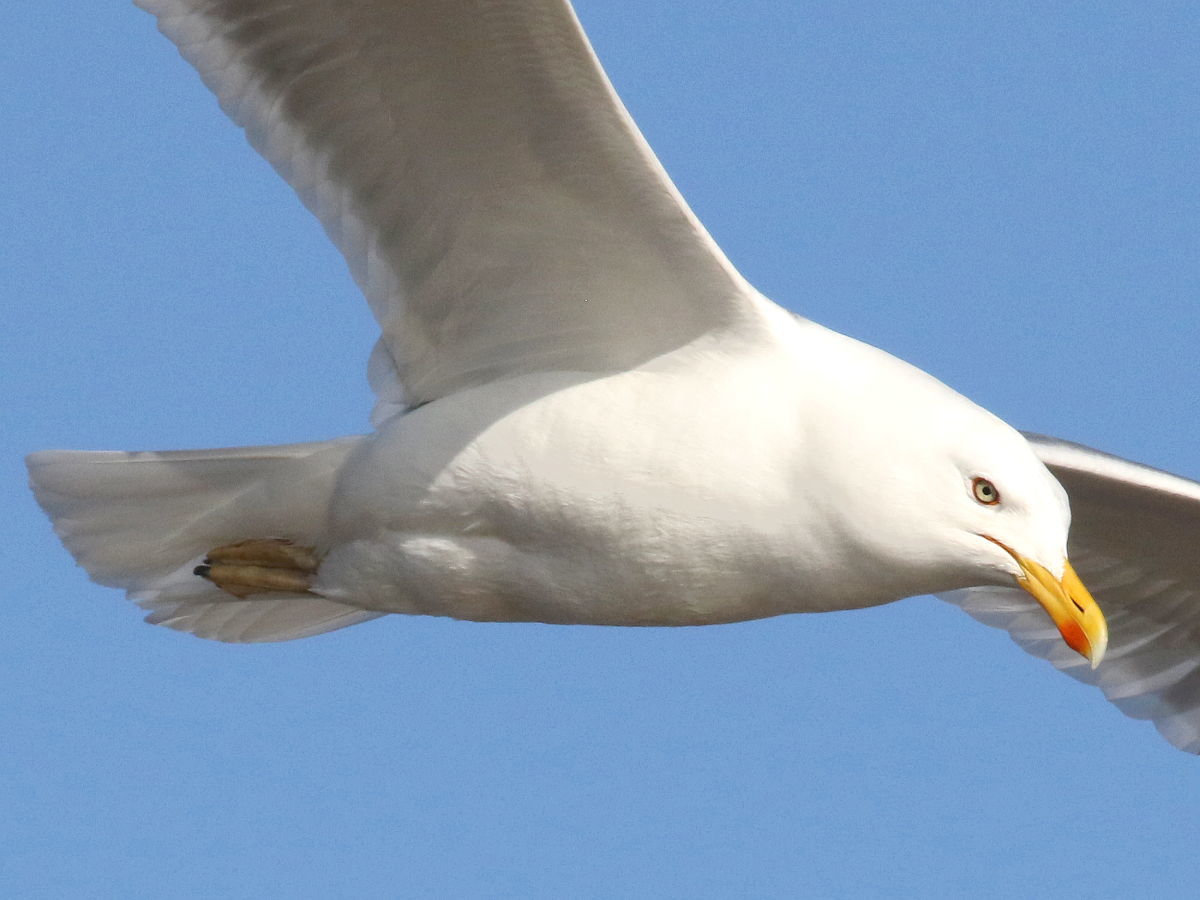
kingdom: Animalia
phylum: Chordata
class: Aves
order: Charadriiformes
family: Laridae
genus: Larus
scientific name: Larus argentatus
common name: Herring gull
